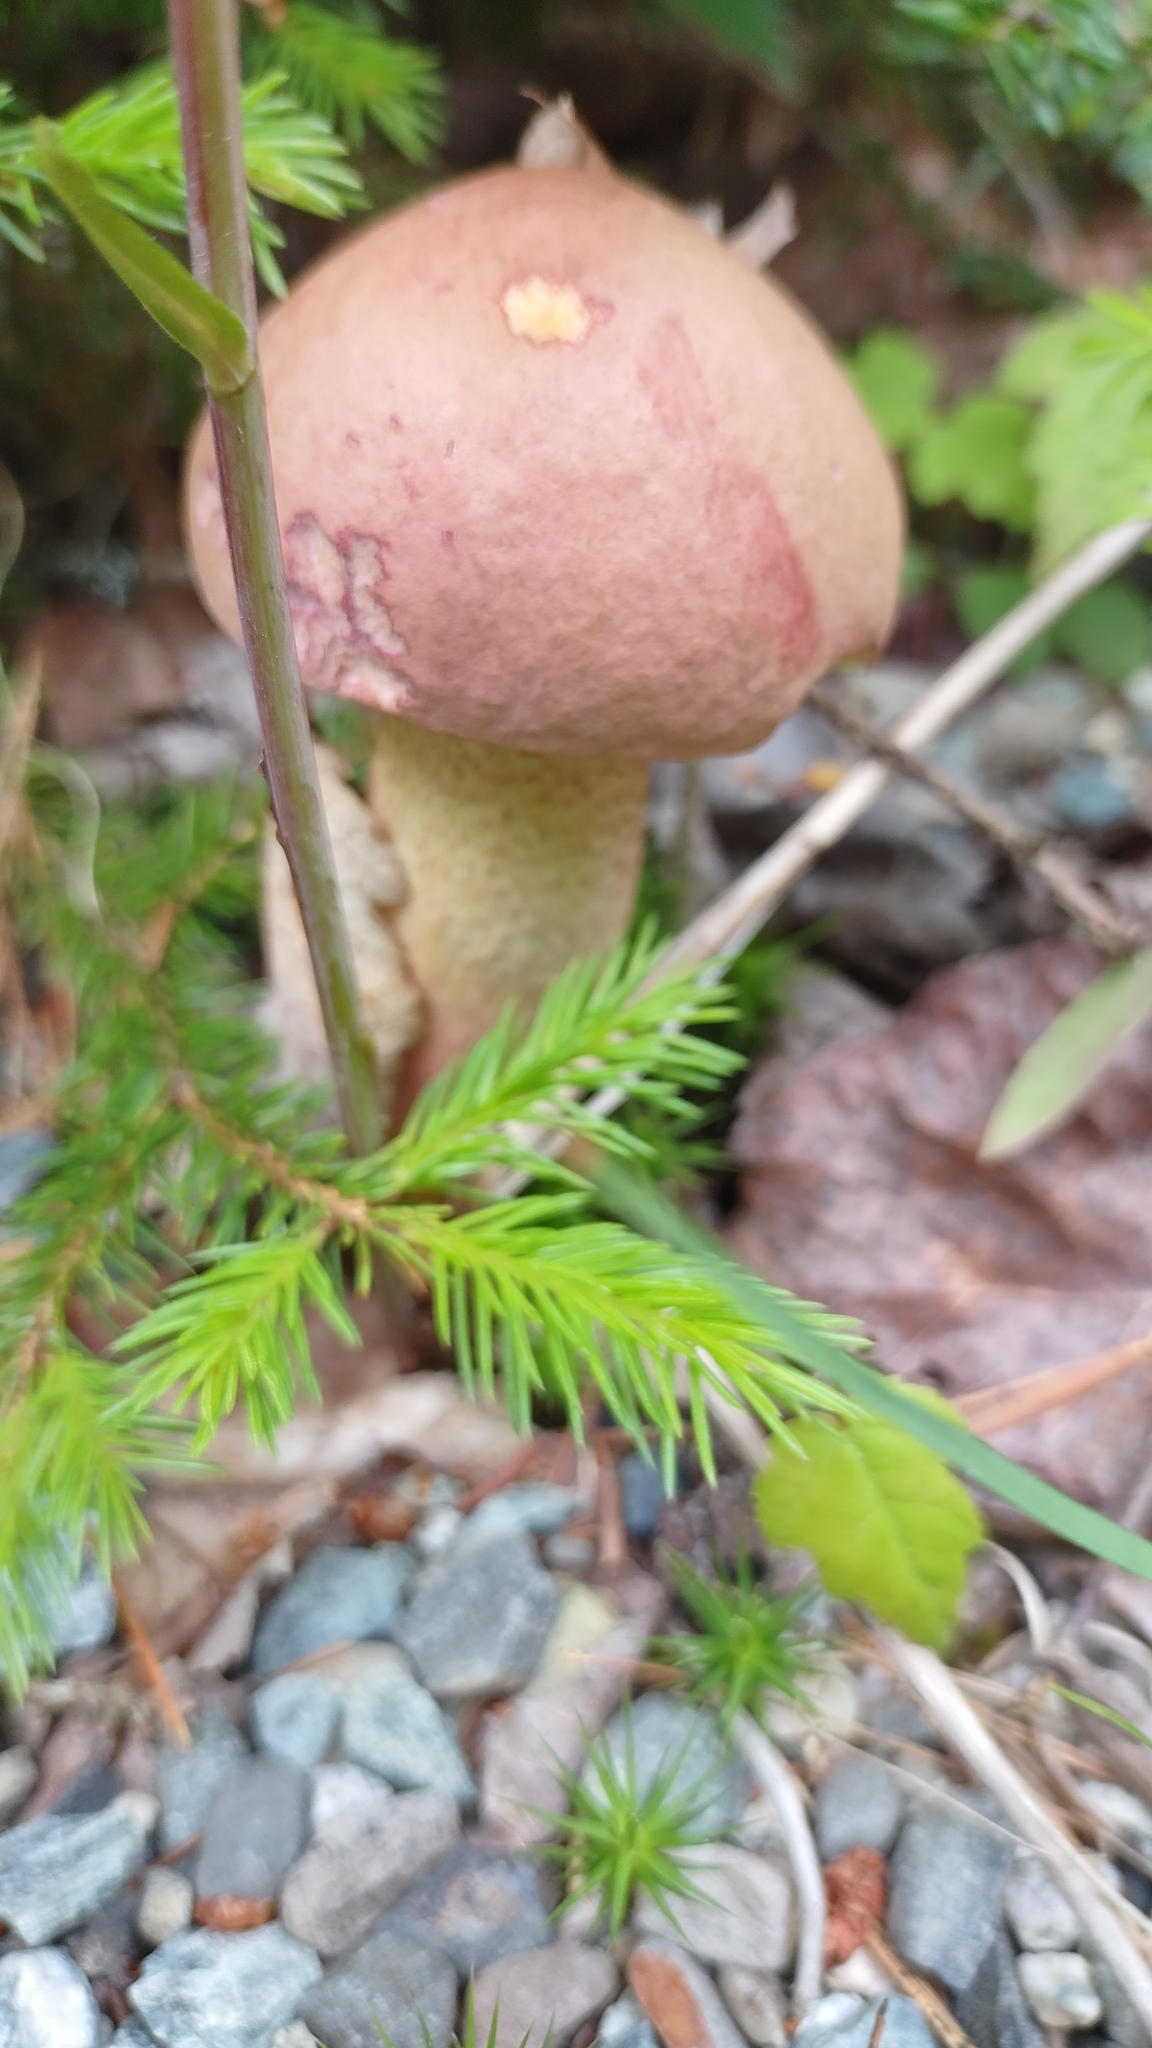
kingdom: Fungi
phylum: Basidiomycota
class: Agaricomycetes
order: Boletales
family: Boletaceae
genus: Harrya
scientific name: Harrya chromipes
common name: Chrome-footed bolete
